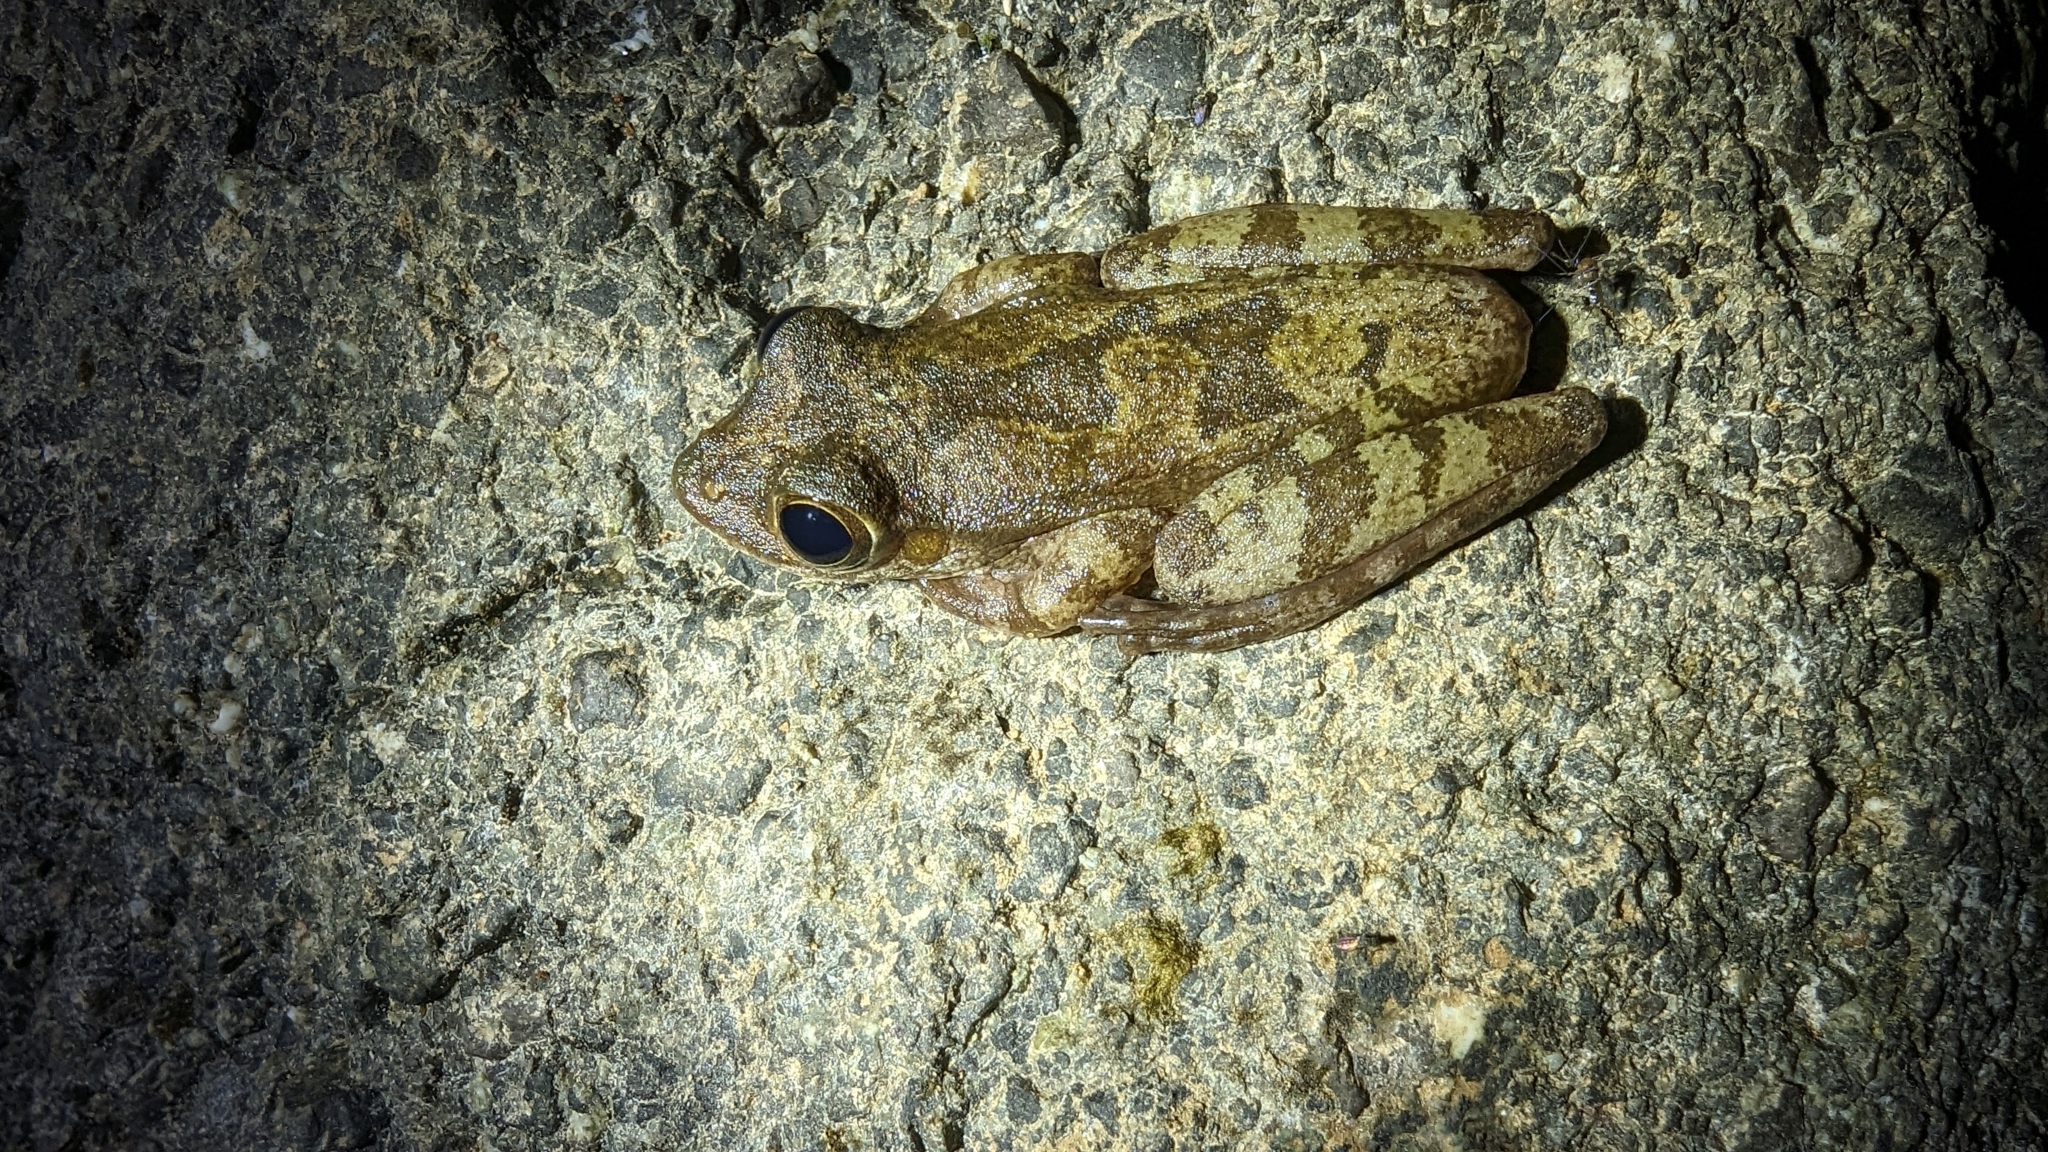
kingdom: Animalia
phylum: Chordata
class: Amphibia
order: Anura
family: Hylidae
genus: Smilisca
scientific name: Smilisca sordida
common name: Veragua cross-banded treefrog
